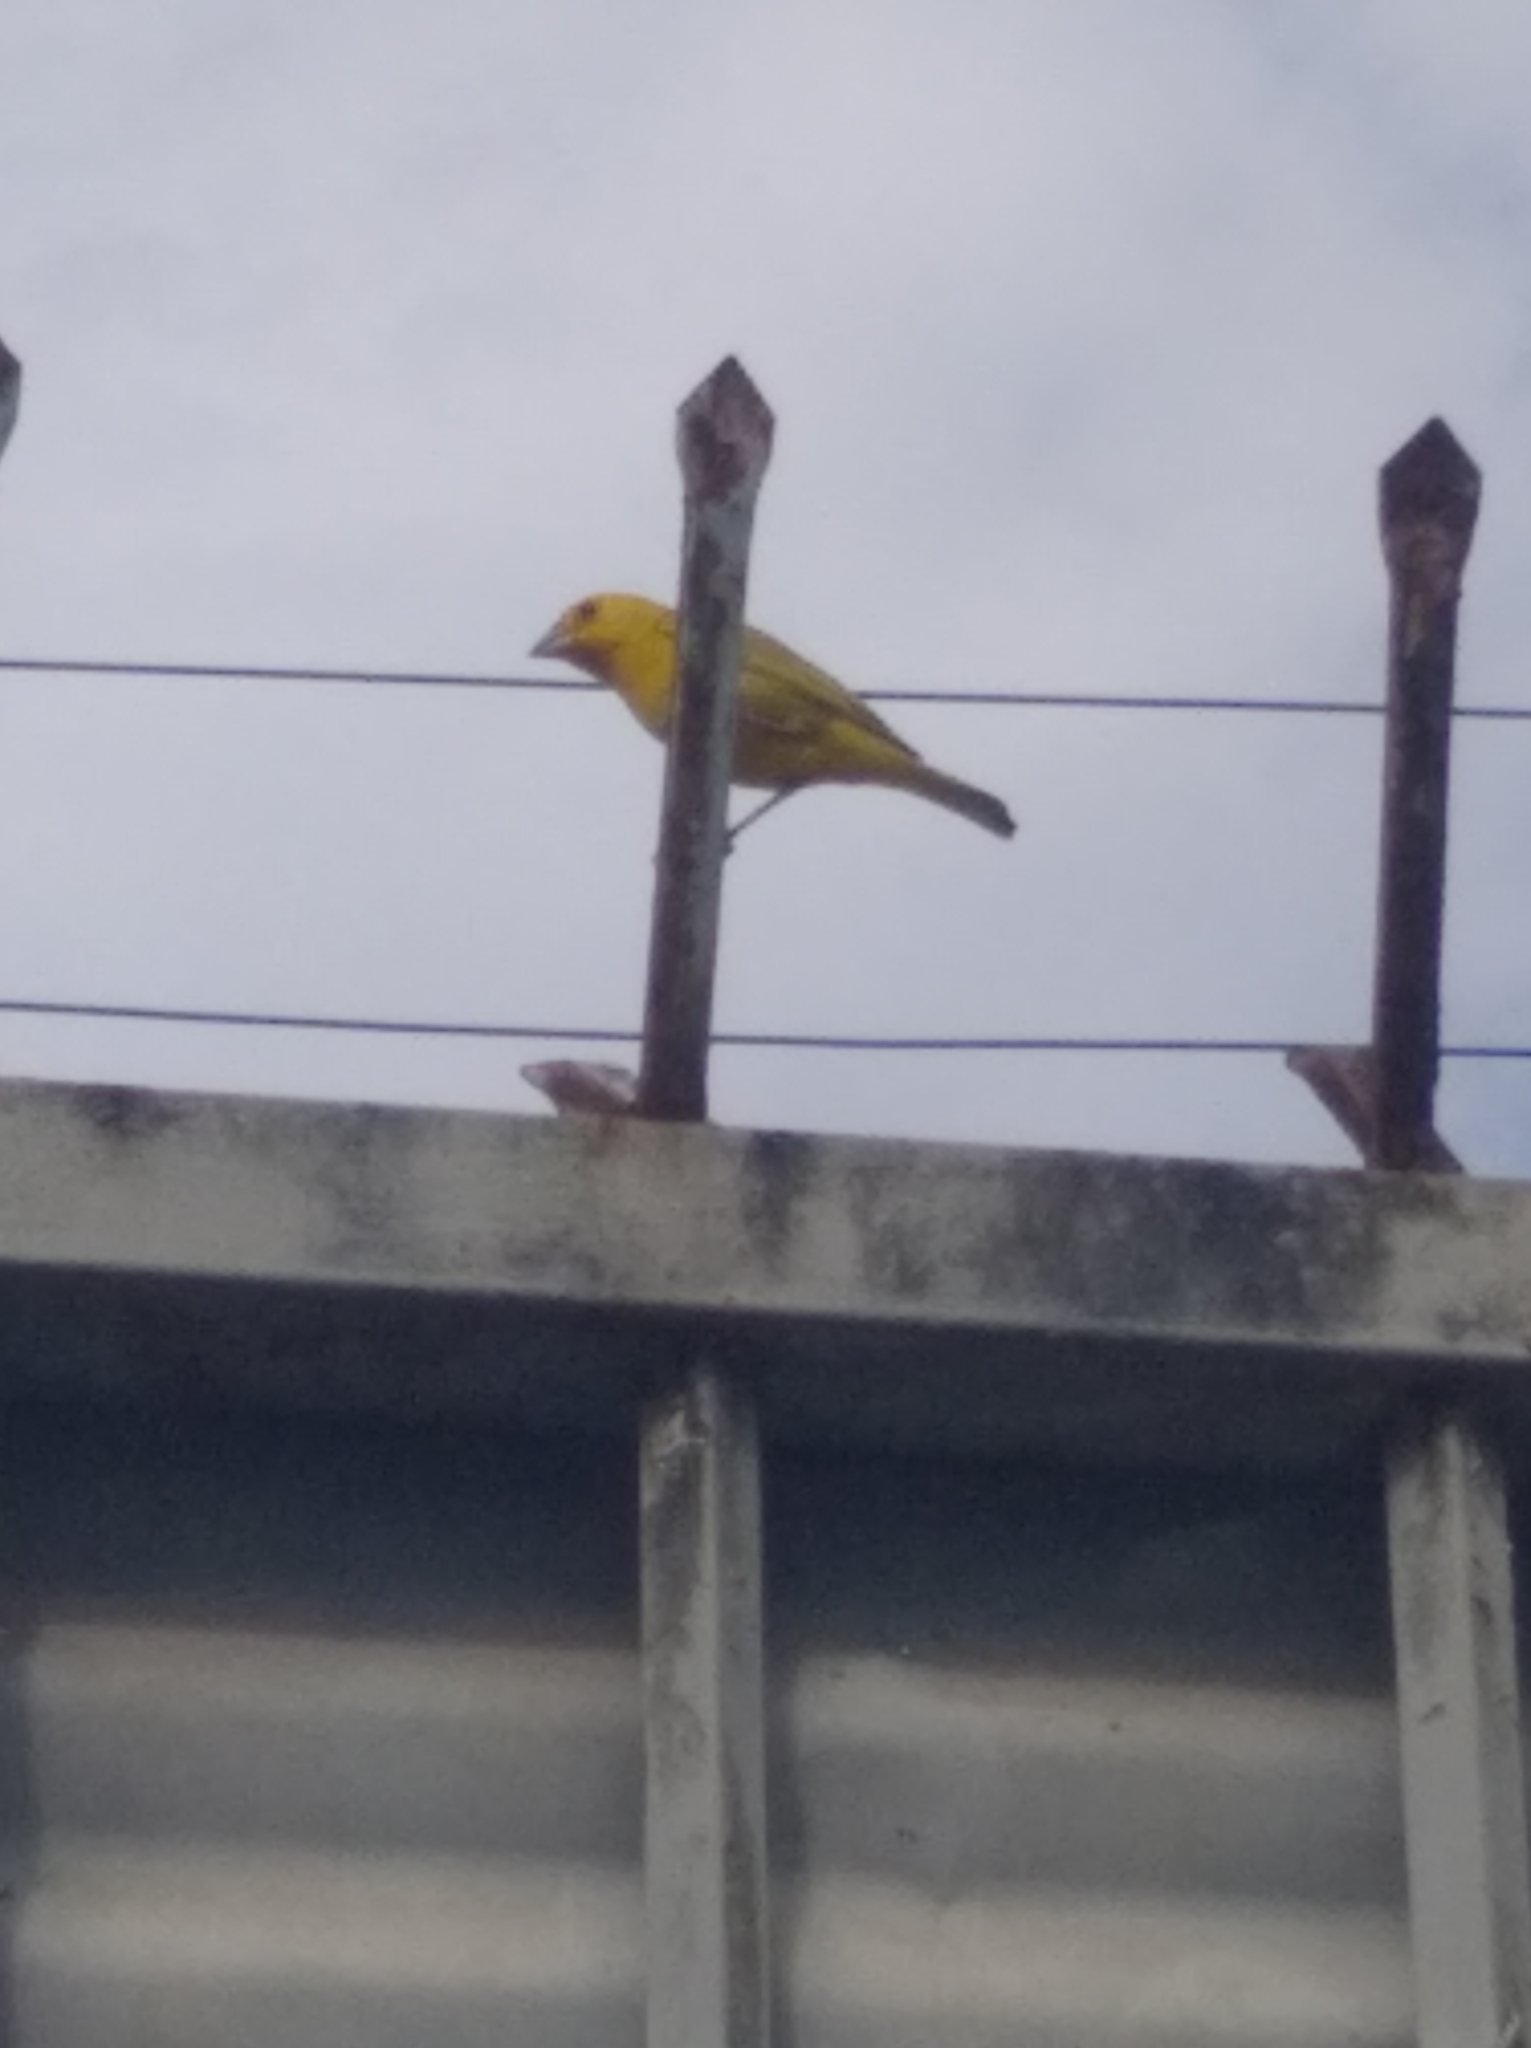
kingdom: Animalia
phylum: Chordata
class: Aves
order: Passeriformes
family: Thraupidae
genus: Sicalis
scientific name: Sicalis flaveola
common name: Saffron finch
